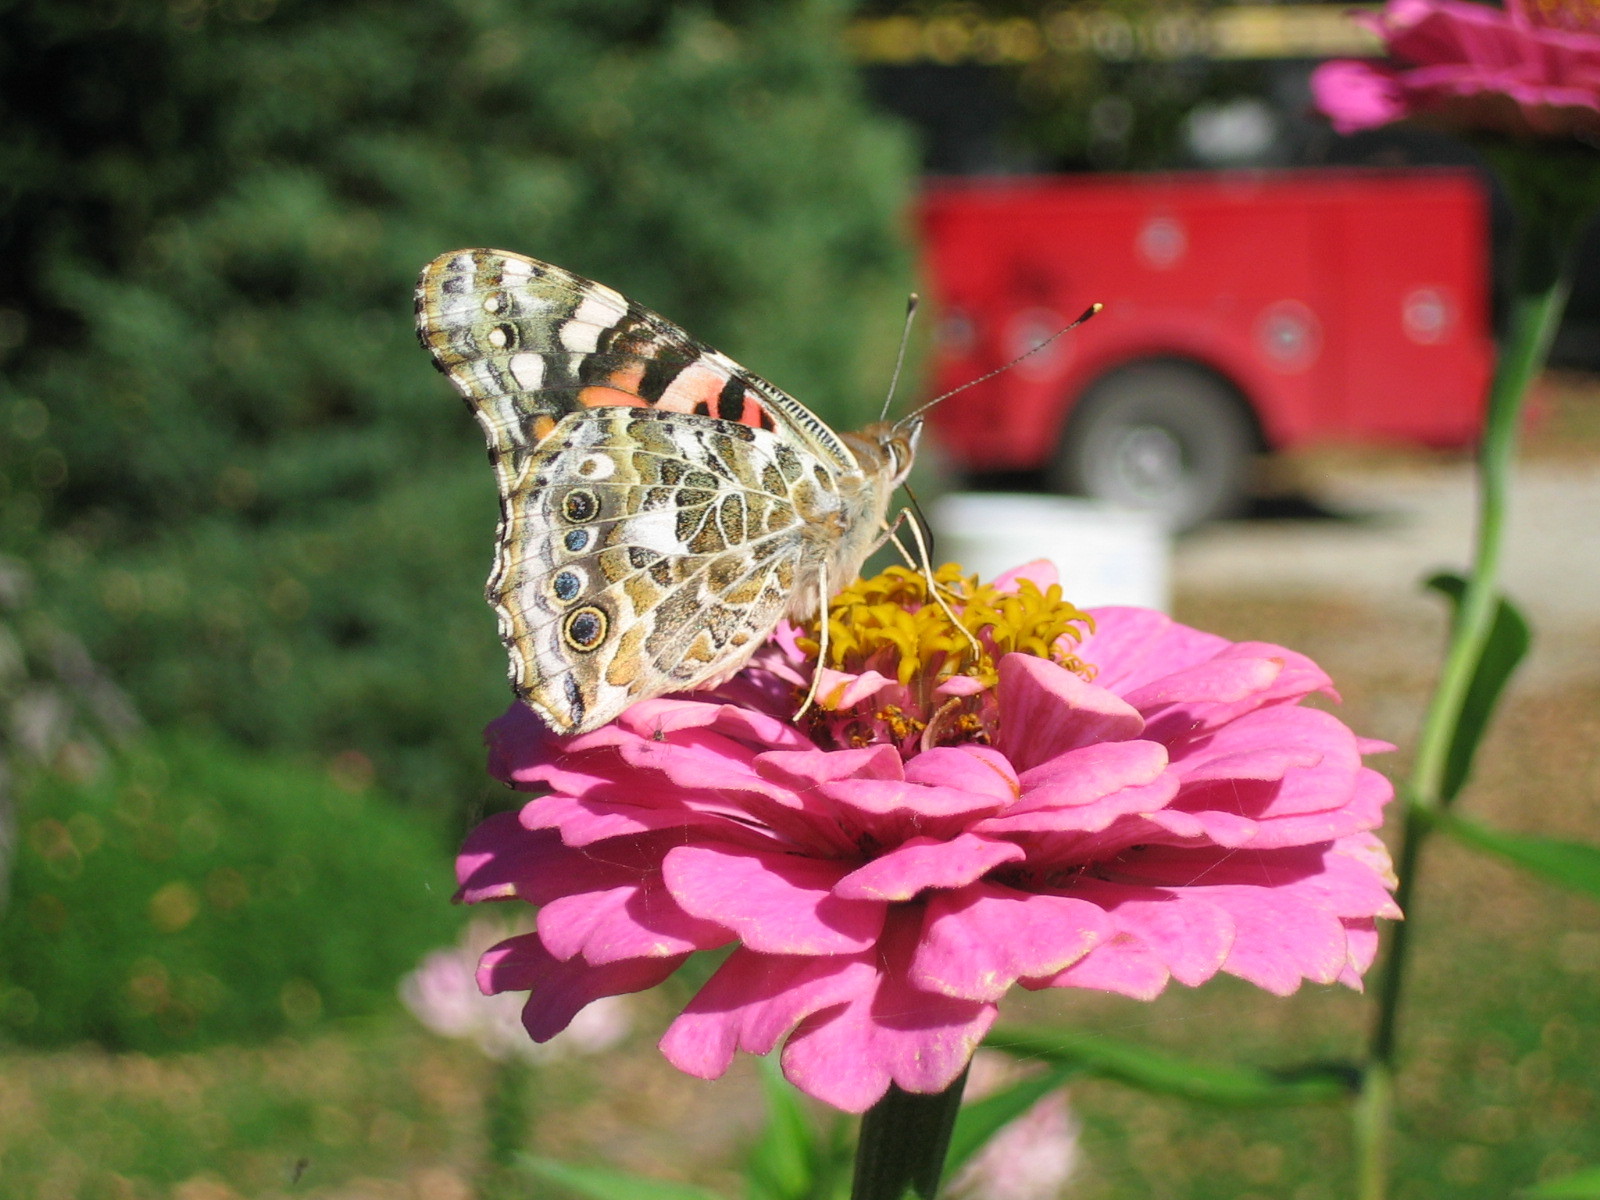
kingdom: Animalia
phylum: Arthropoda
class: Insecta
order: Lepidoptera
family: Nymphalidae
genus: Vanessa
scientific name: Vanessa cardui
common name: Painted lady
